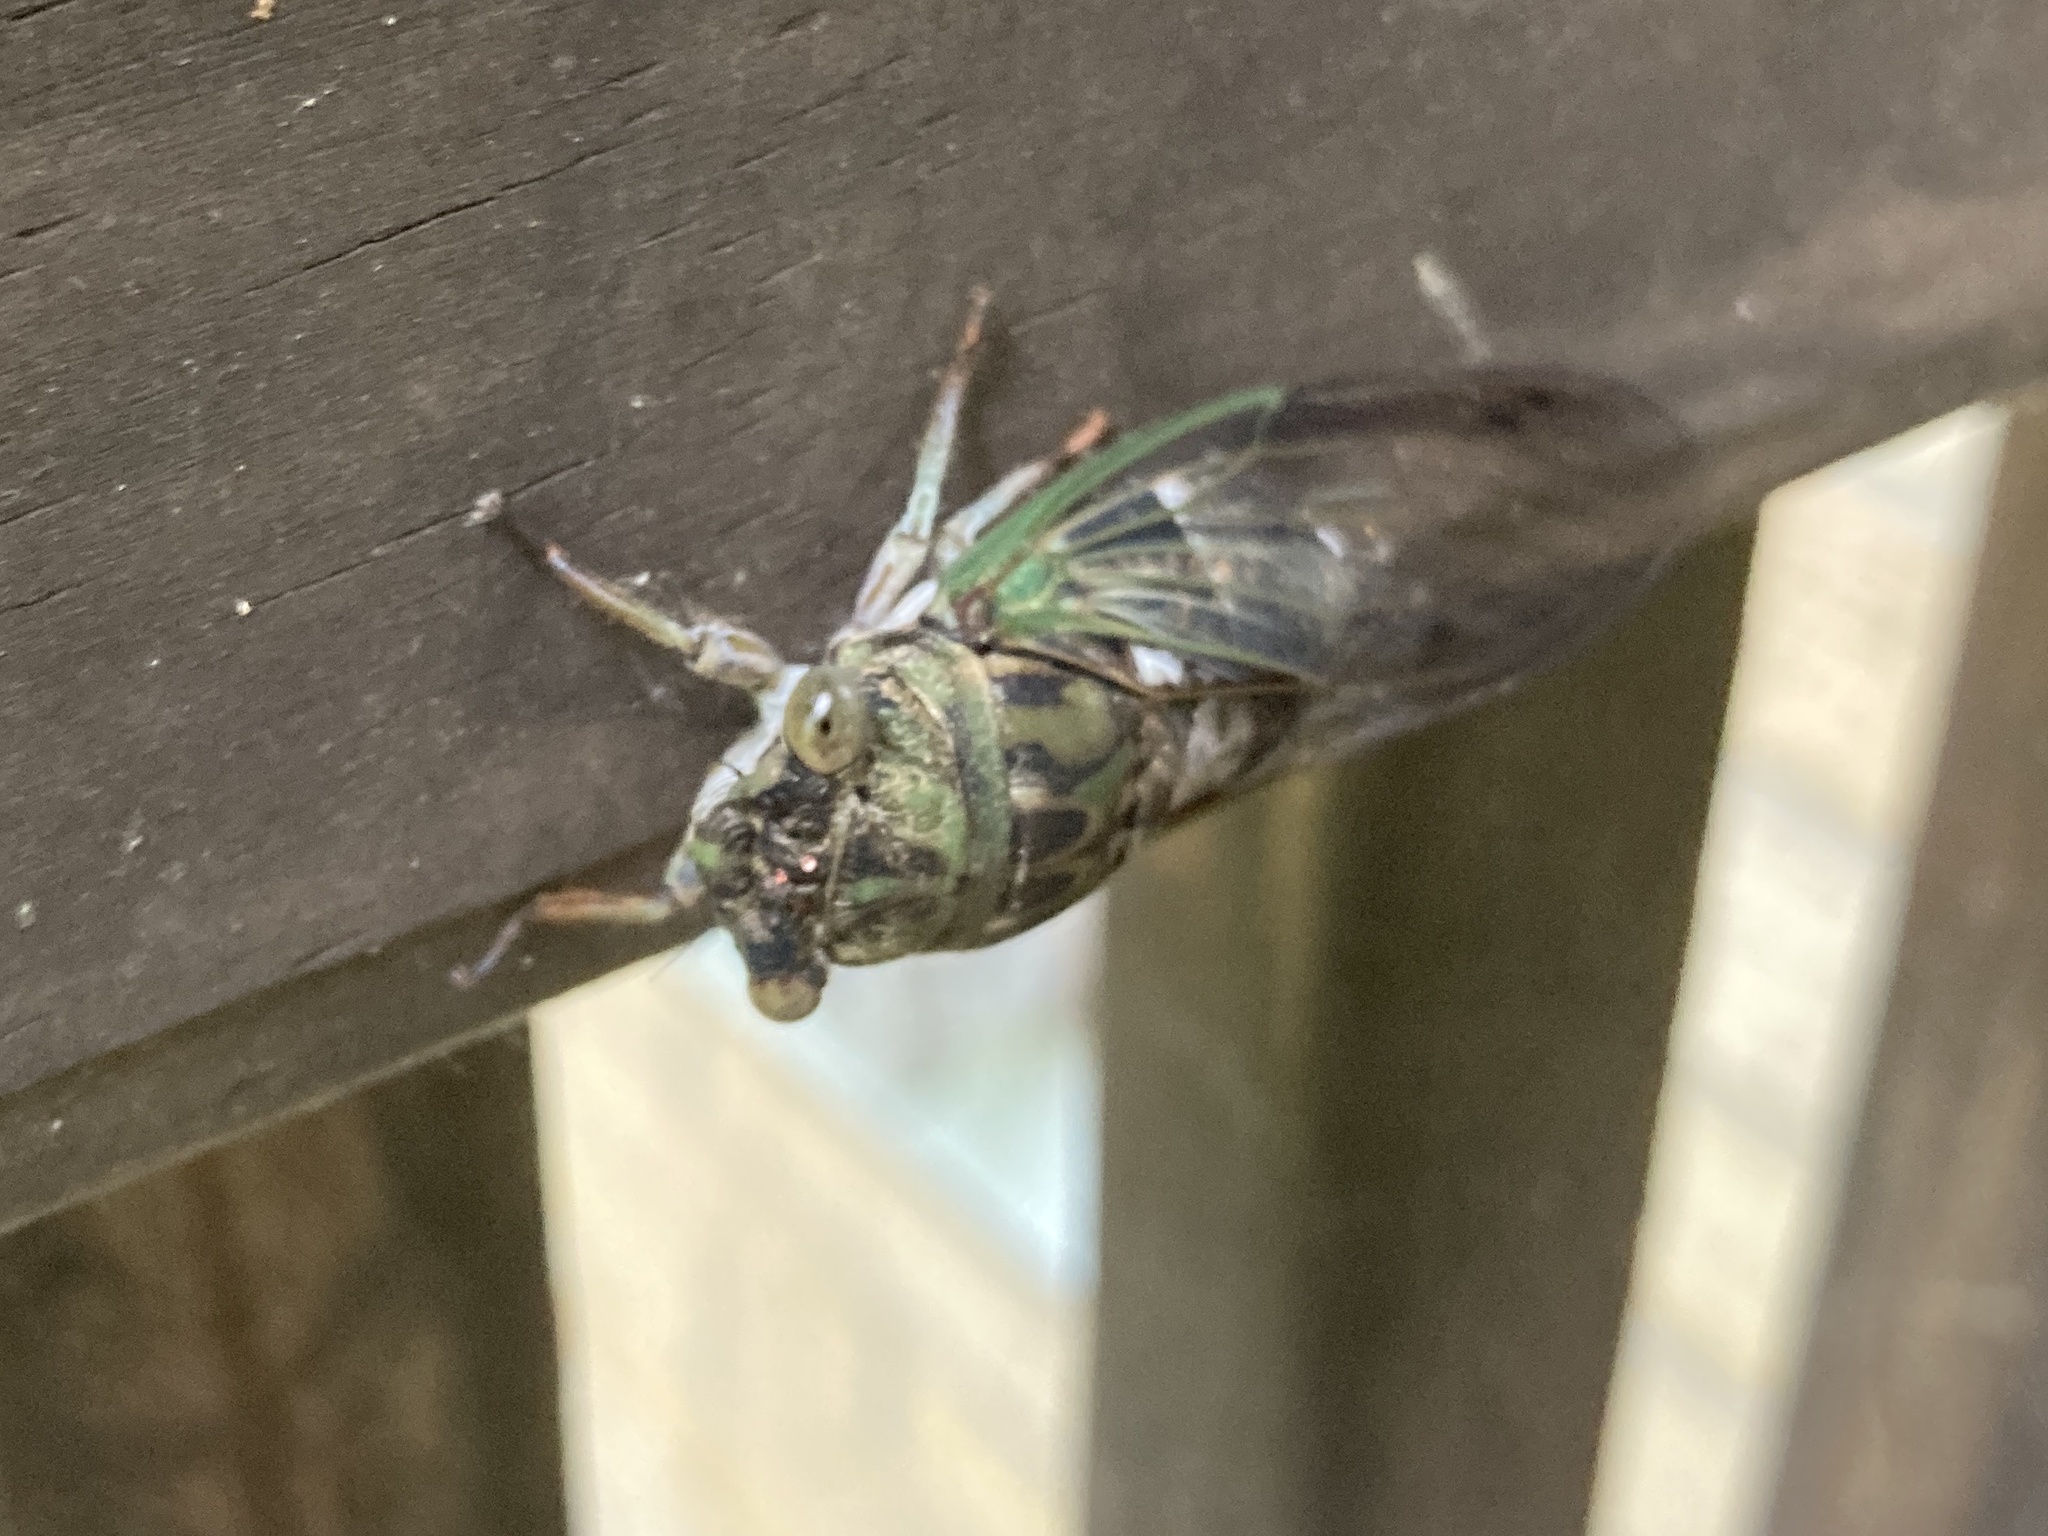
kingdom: Animalia
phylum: Arthropoda
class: Insecta
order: Hemiptera
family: Cicadidae
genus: Neotibicen
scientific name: Neotibicen
